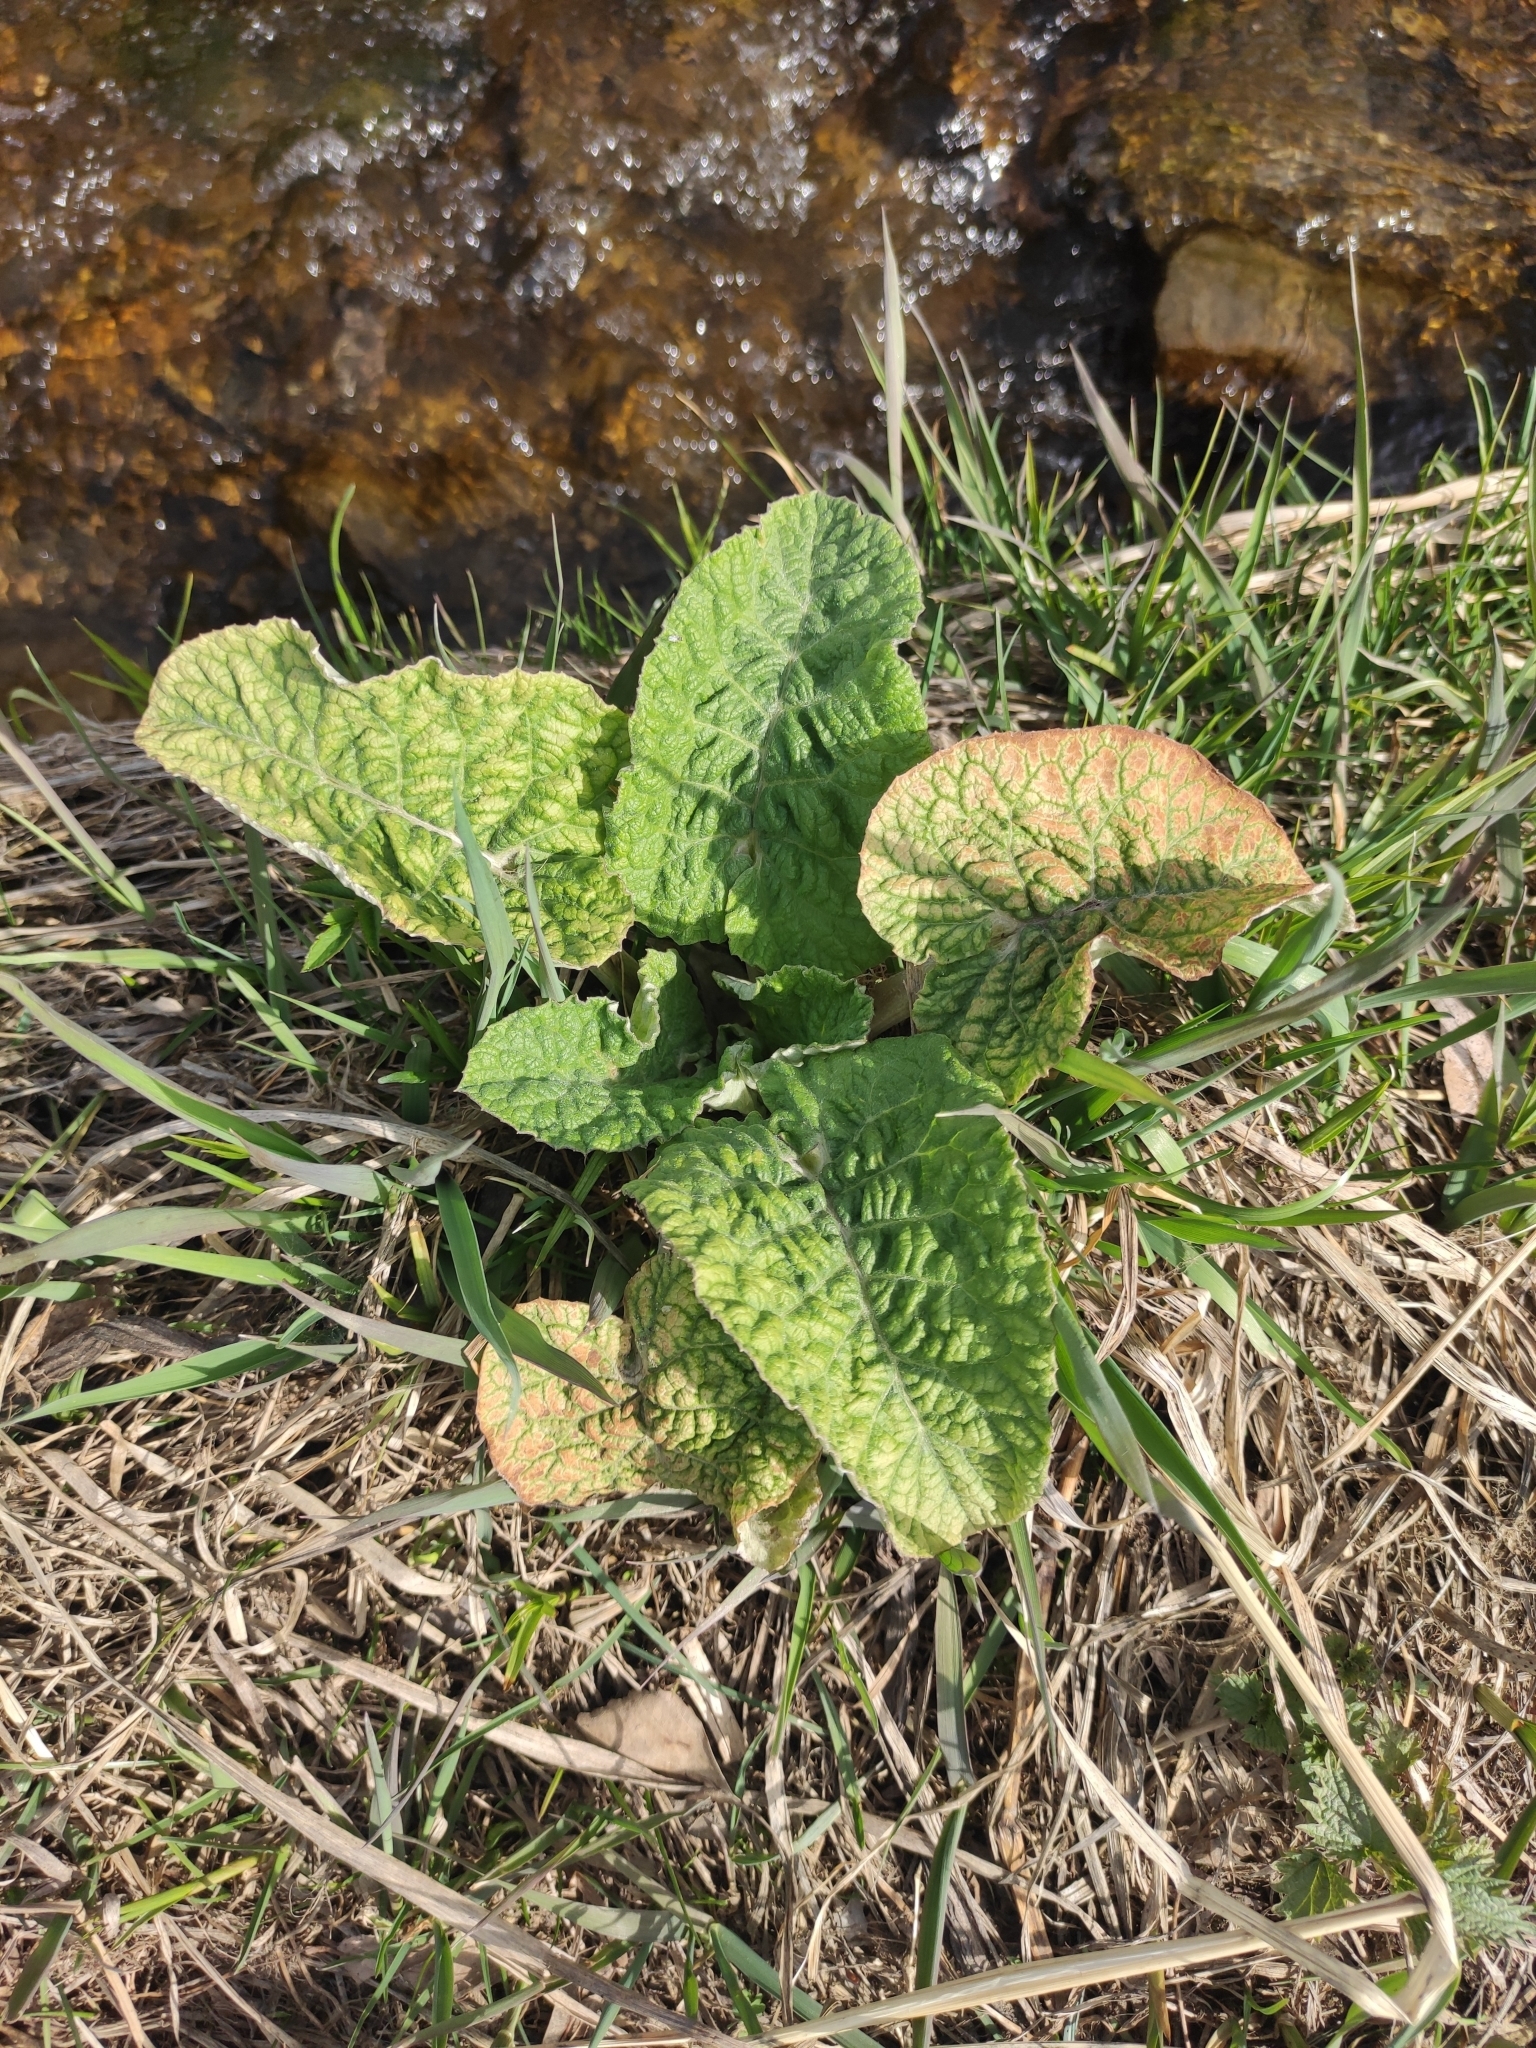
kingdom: Plantae
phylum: Tracheophyta
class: Magnoliopsida
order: Asterales
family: Asteraceae
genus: Arctium
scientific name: Arctium tomentosum
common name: Woolly burdock
